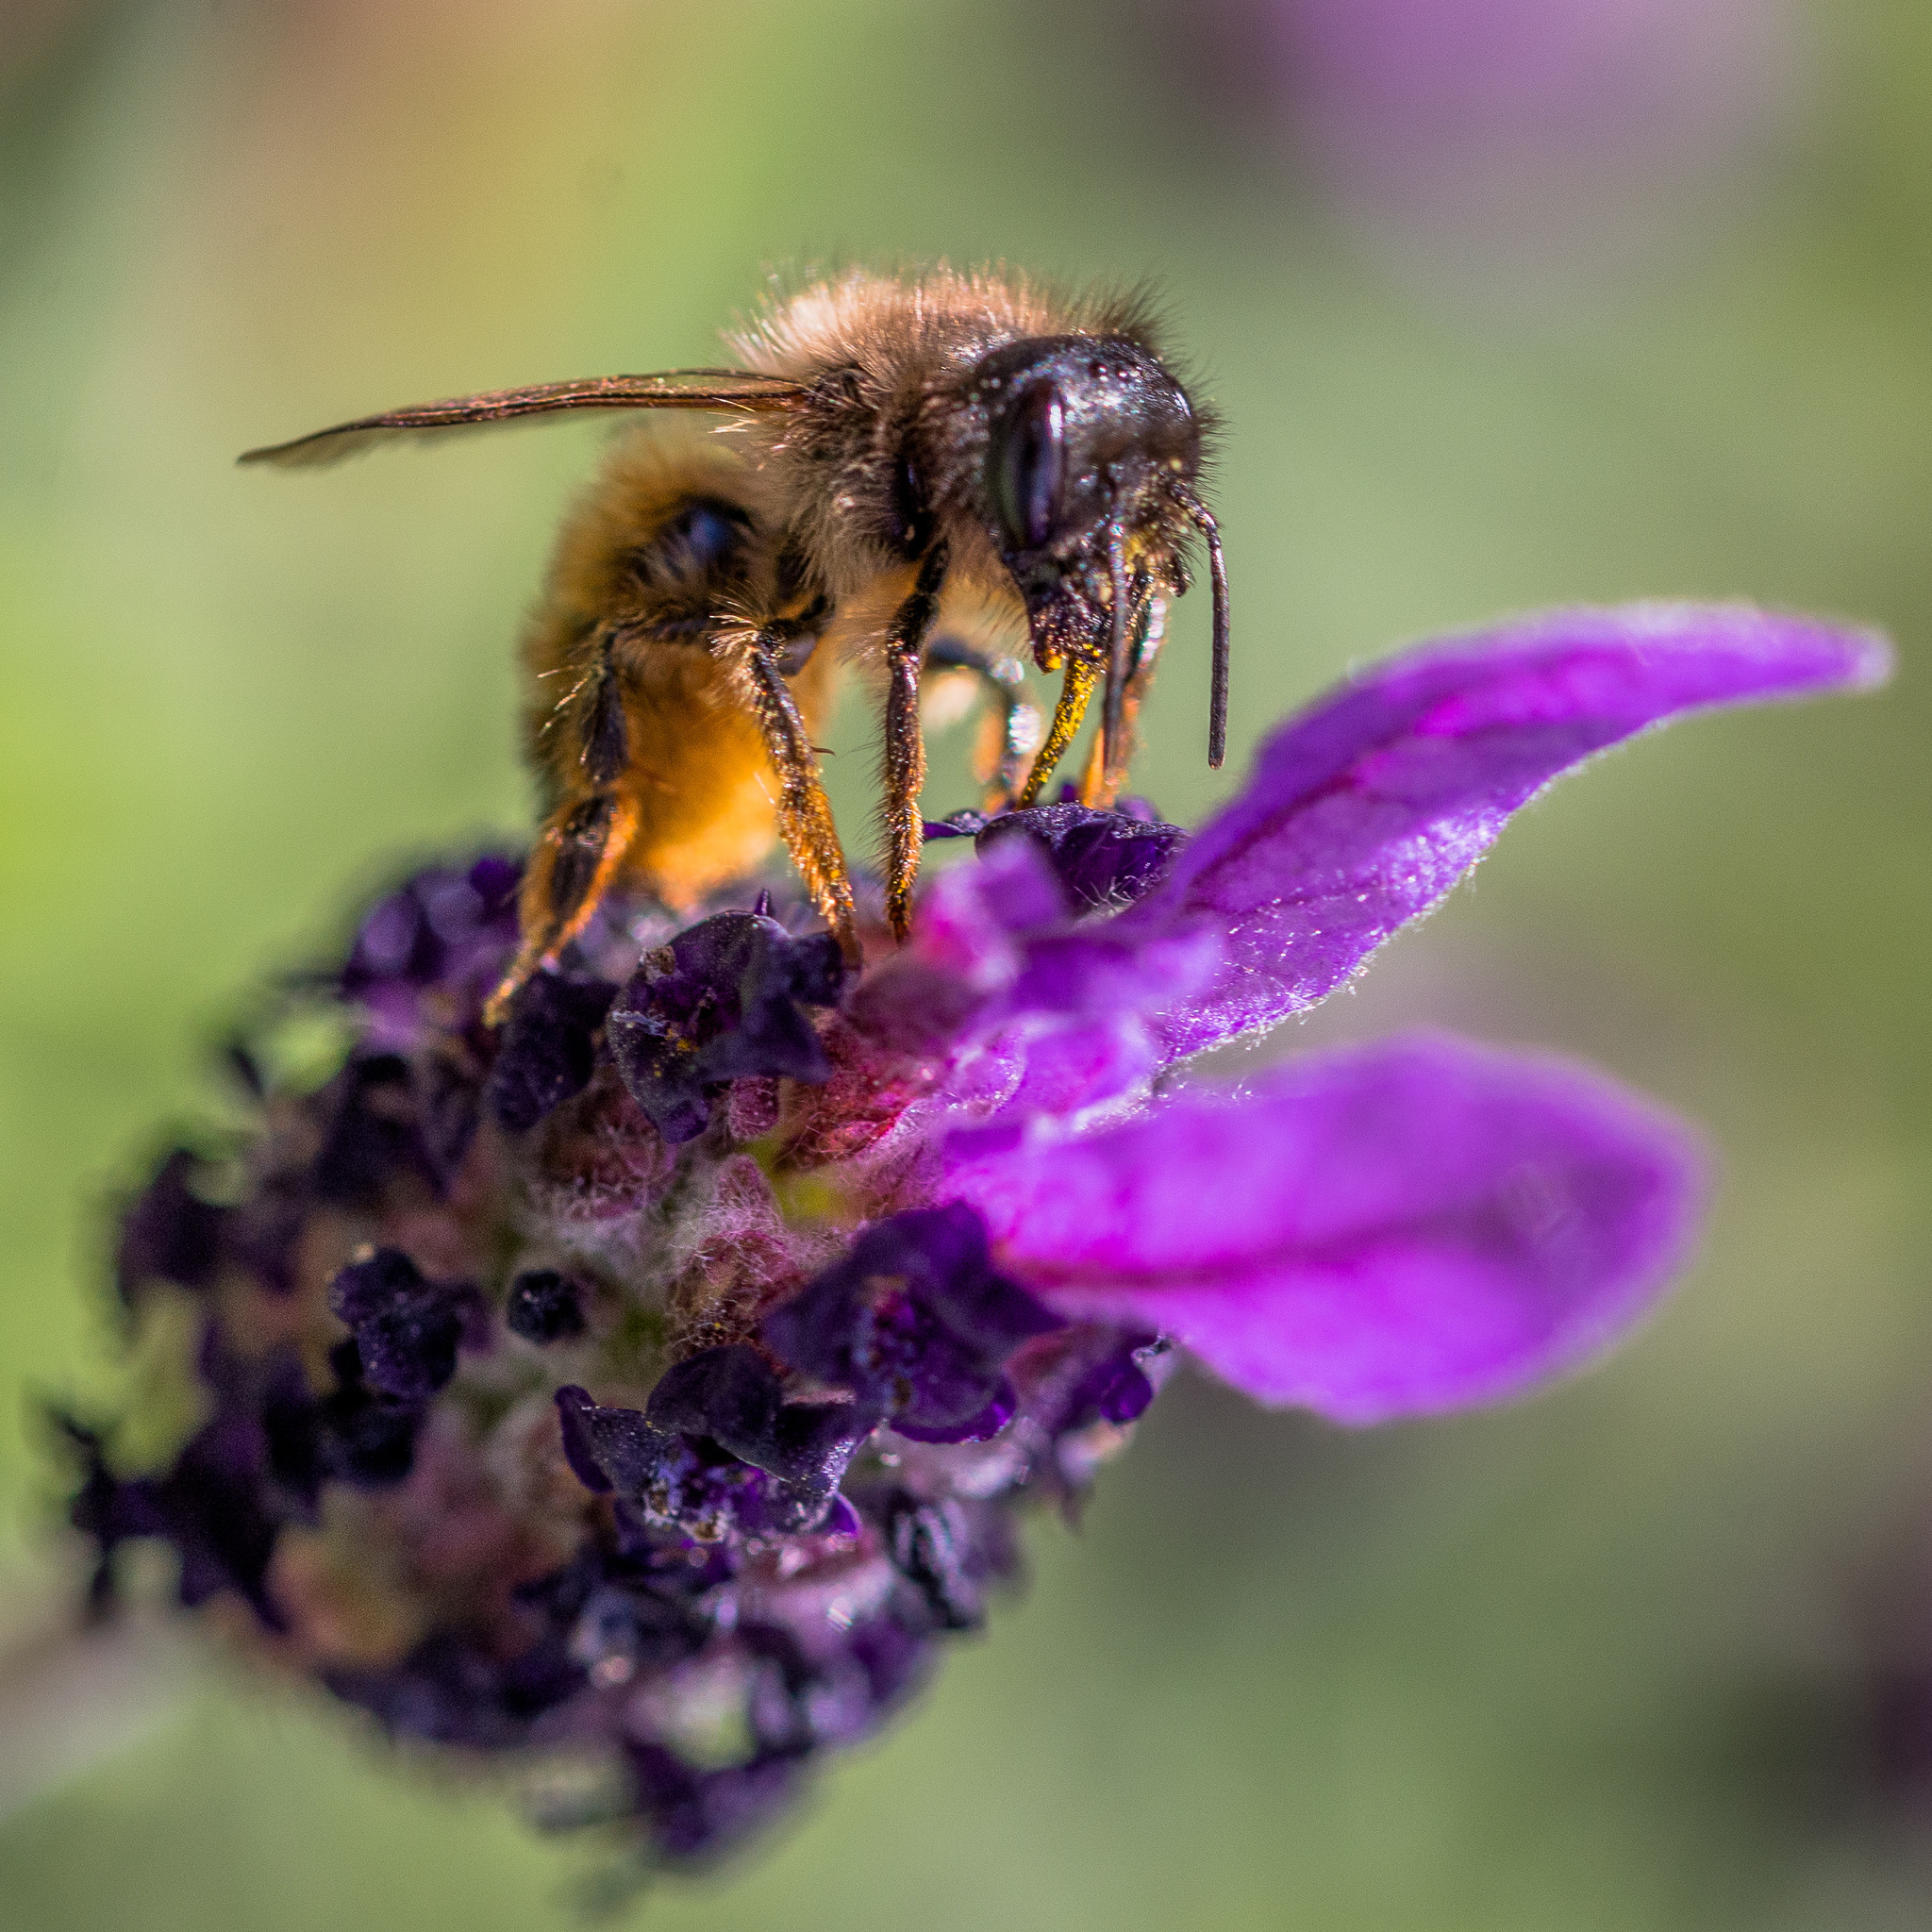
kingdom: Animalia
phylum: Arthropoda
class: Insecta
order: Hymenoptera
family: Megachilidae
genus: Osmia
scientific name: Osmia bicornis
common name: Red mason bee
